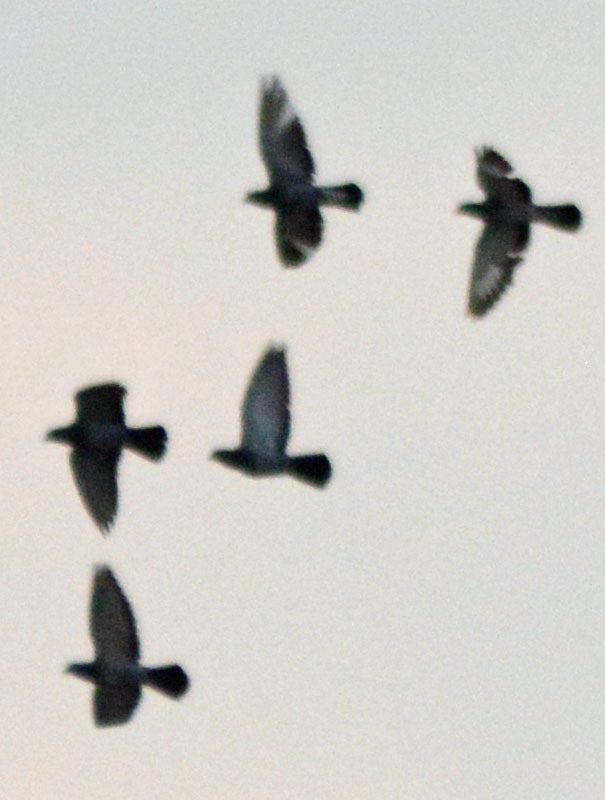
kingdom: Animalia
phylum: Chordata
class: Aves
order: Columbiformes
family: Columbidae
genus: Columba
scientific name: Columba livia
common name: Rock pigeon
